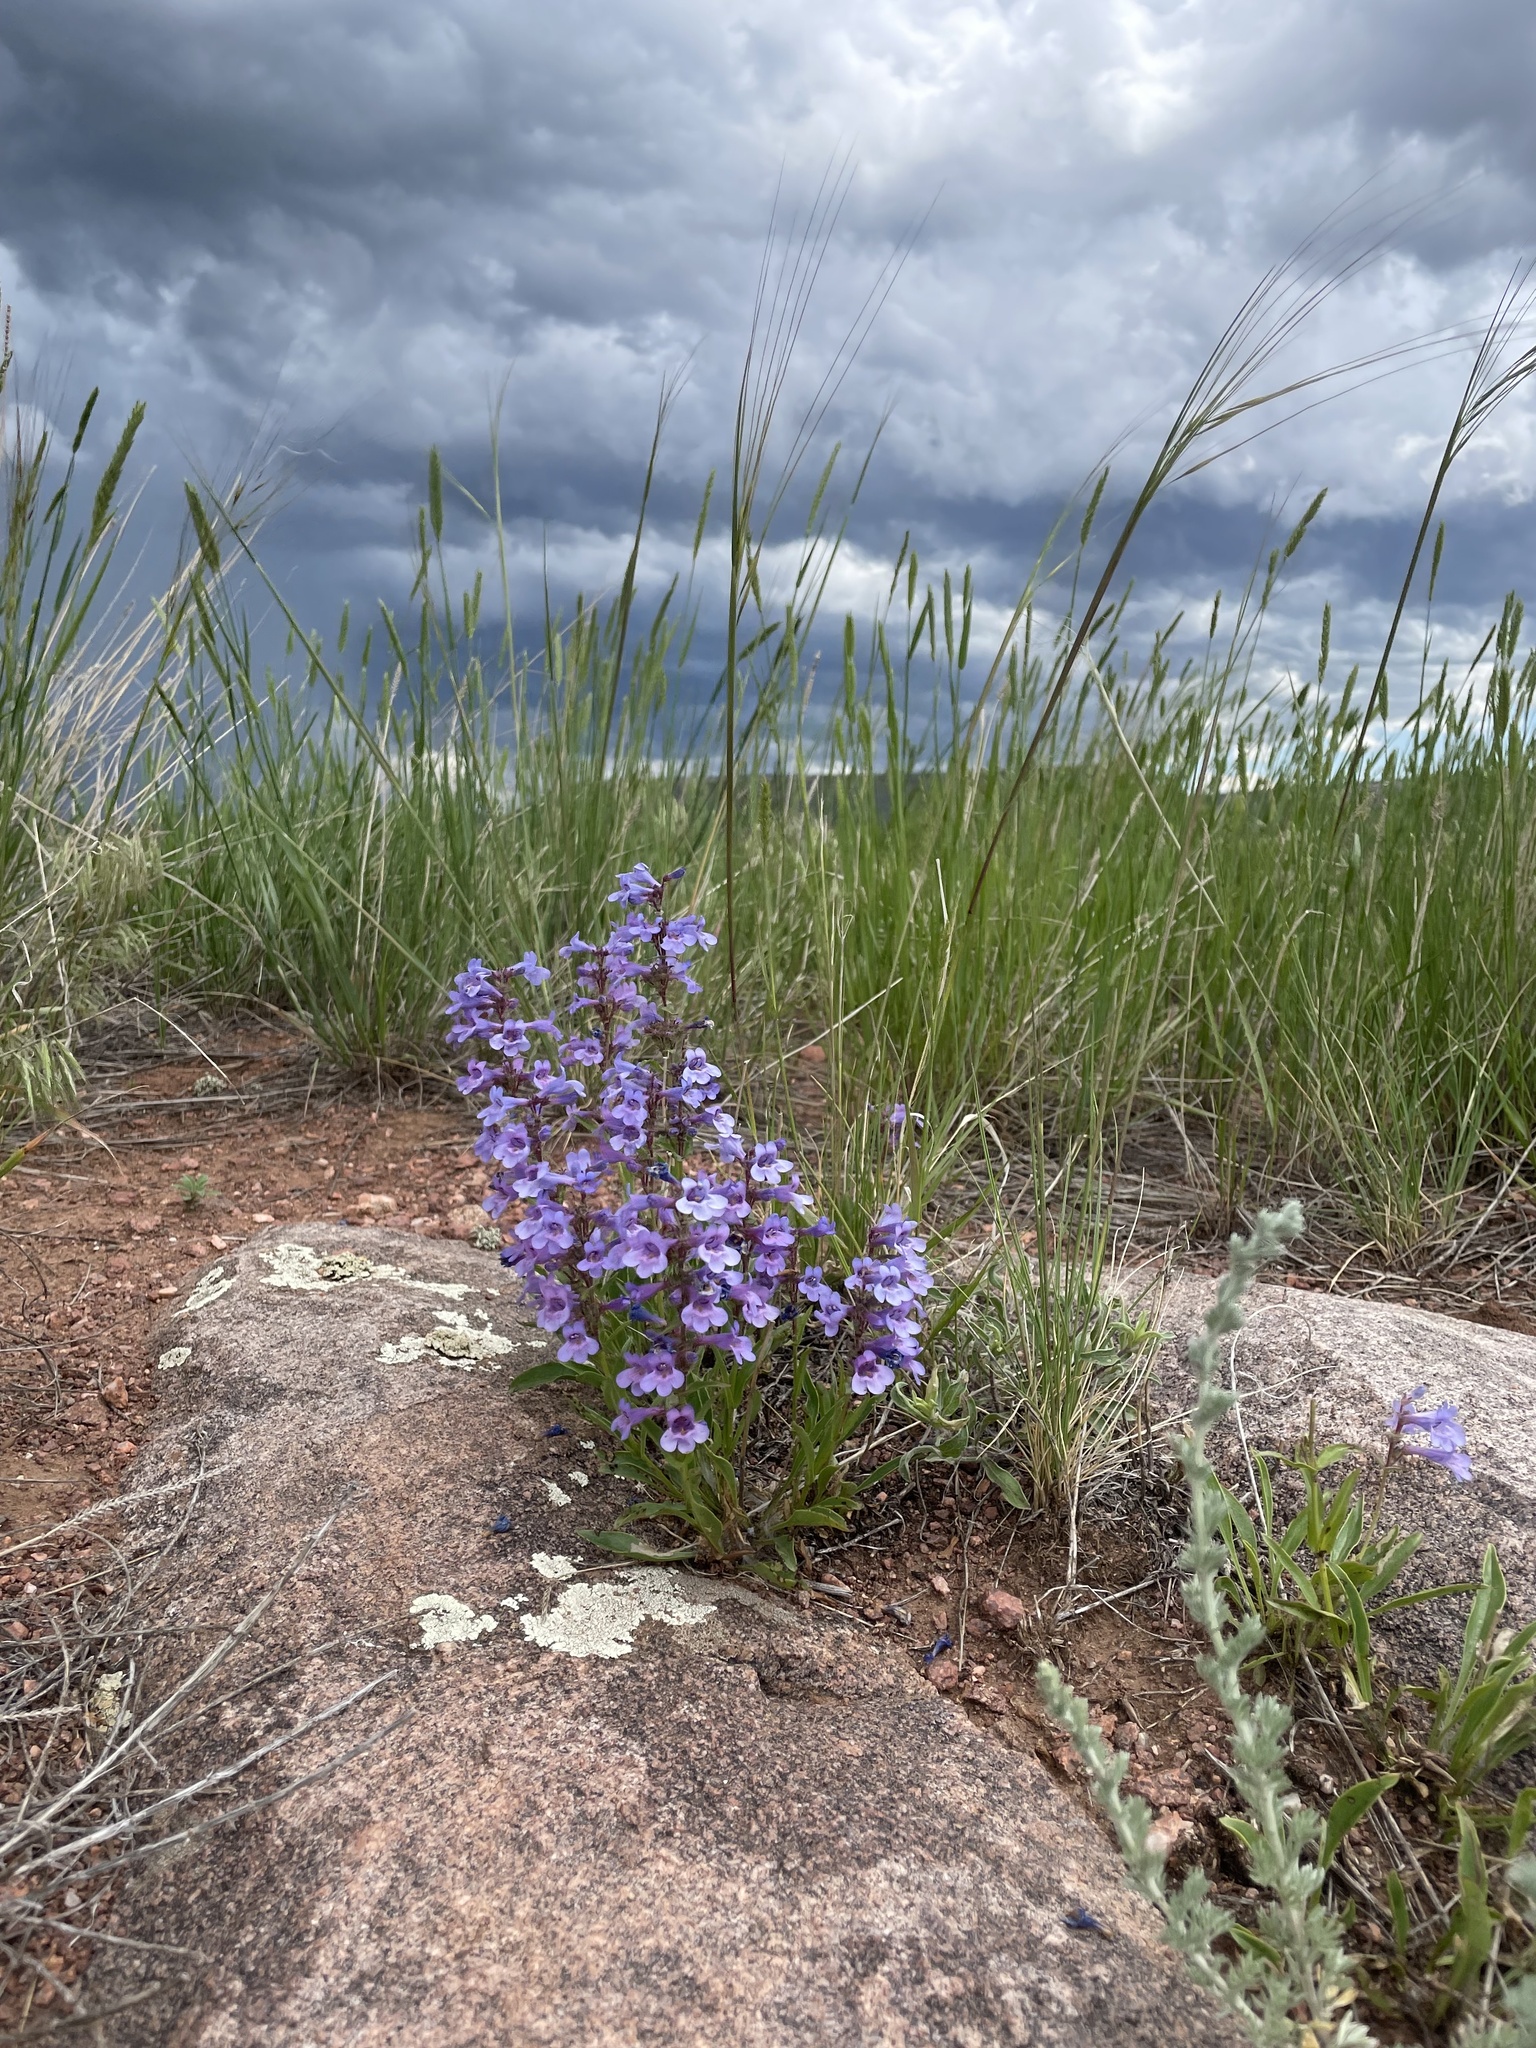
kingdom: Plantae
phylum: Tracheophyta
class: Magnoliopsida
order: Lamiales
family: Plantaginaceae
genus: Penstemon
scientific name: Penstemon virens
